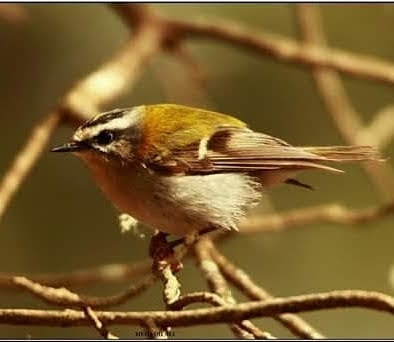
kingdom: Animalia
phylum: Chordata
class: Aves
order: Passeriformes
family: Regulidae
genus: Regulus
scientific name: Regulus ignicapilla
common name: Firecrest
